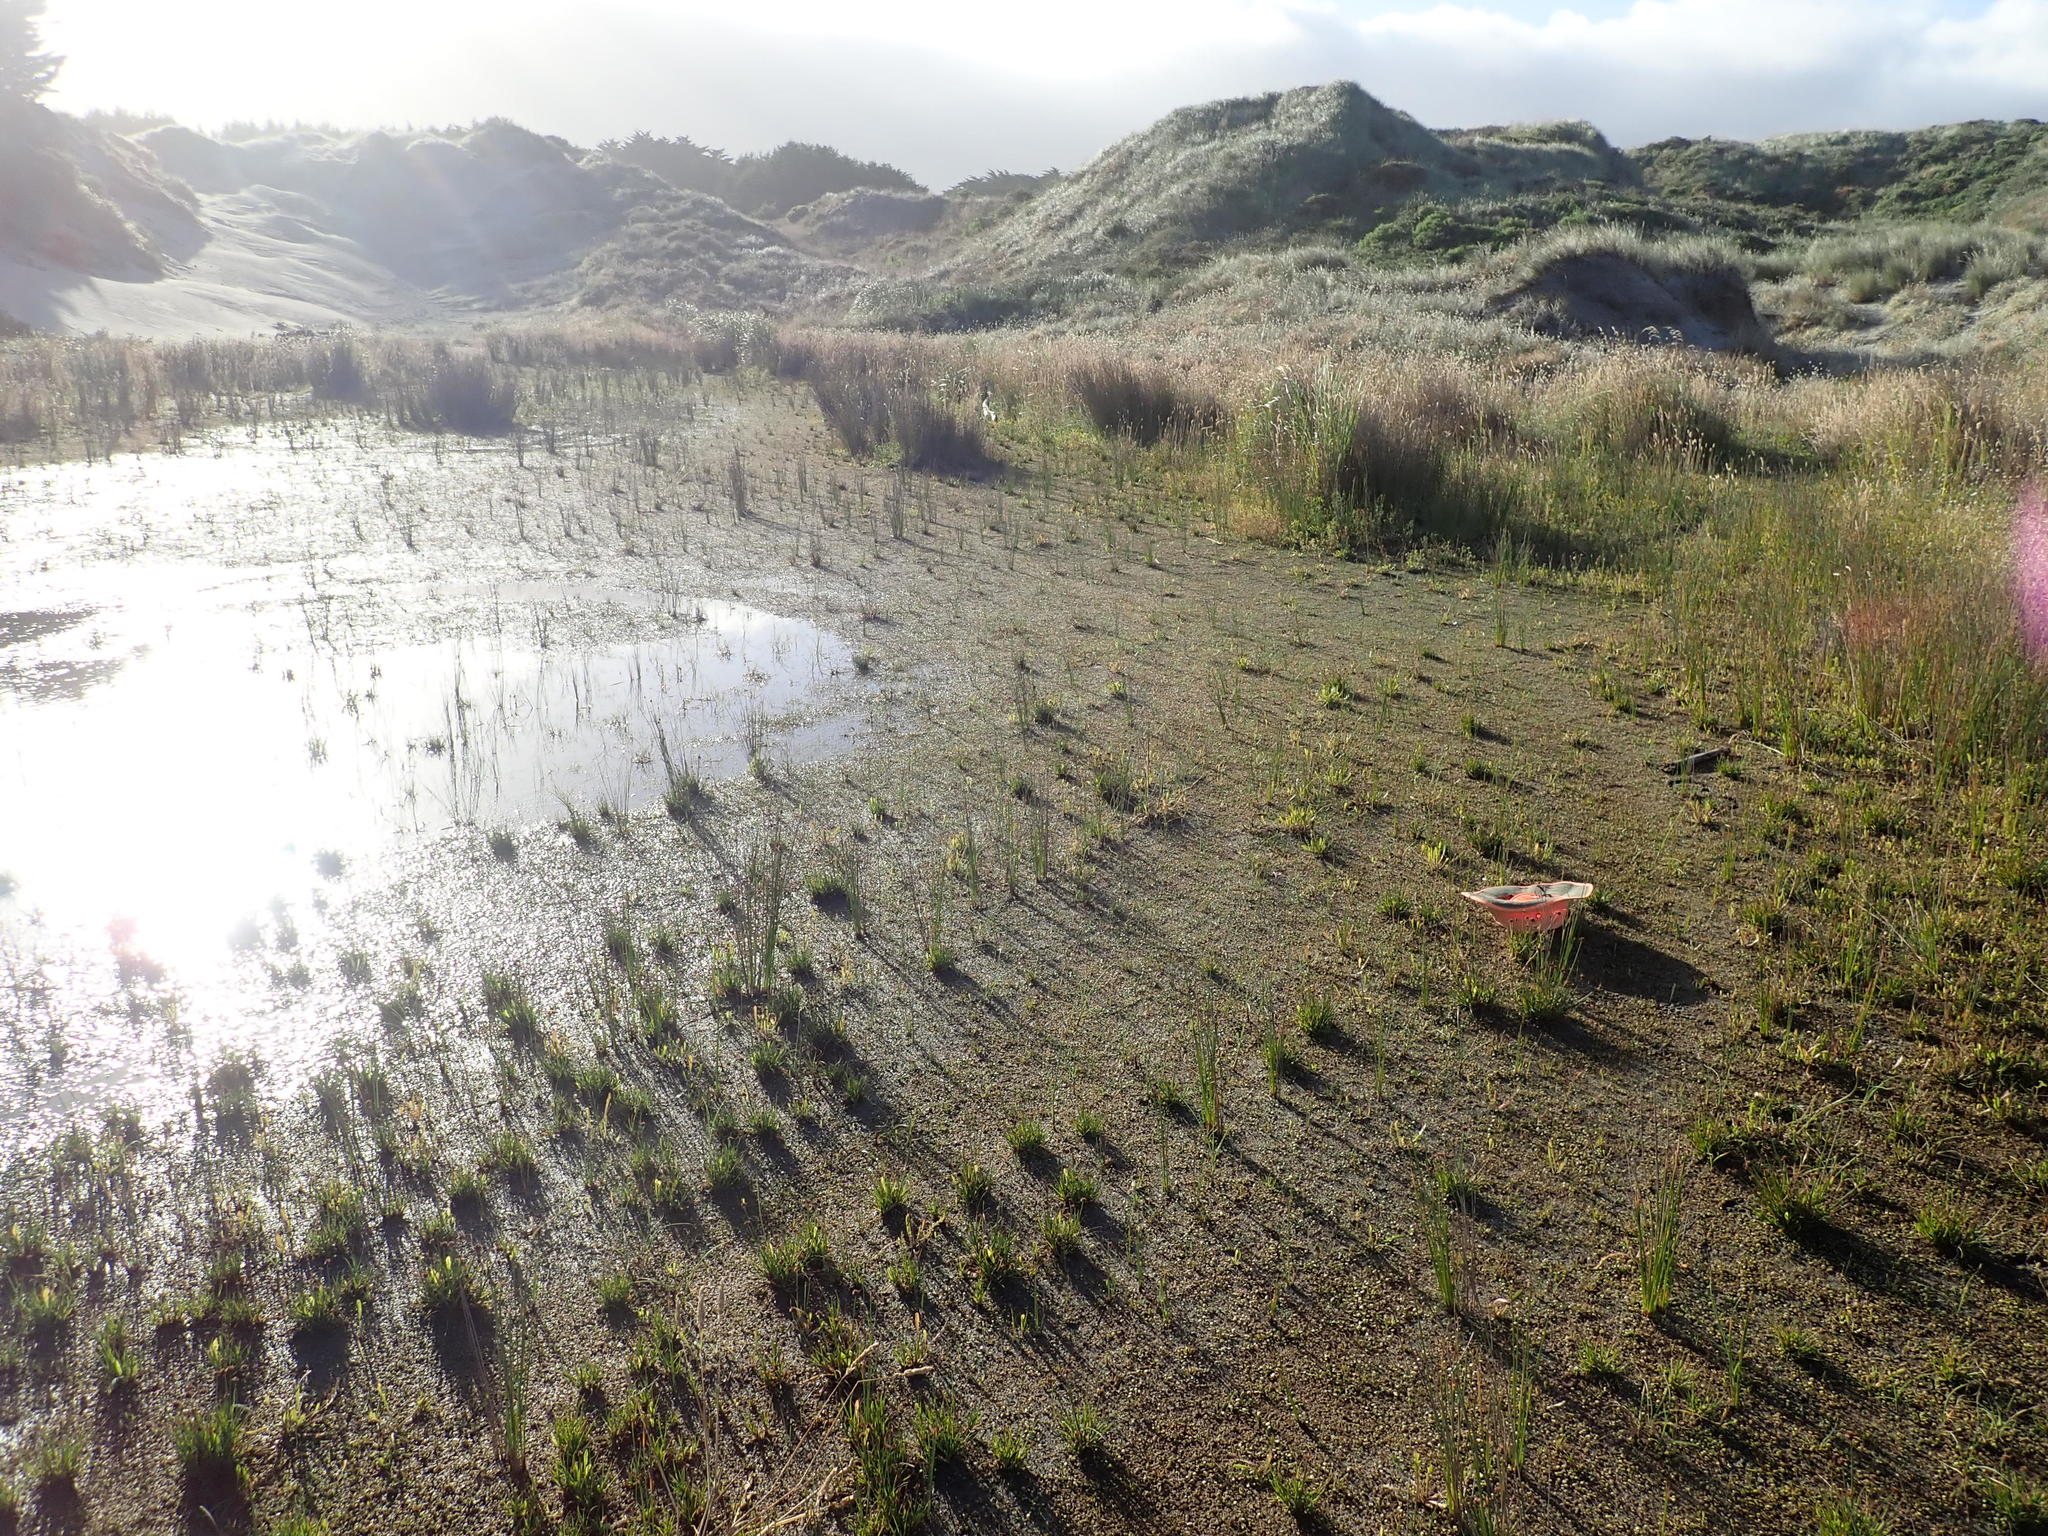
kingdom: Plantae
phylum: Tracheophyta
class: Liliopsida
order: Poales
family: Juncaceae
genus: Juncus
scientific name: Juncus caespiticius
